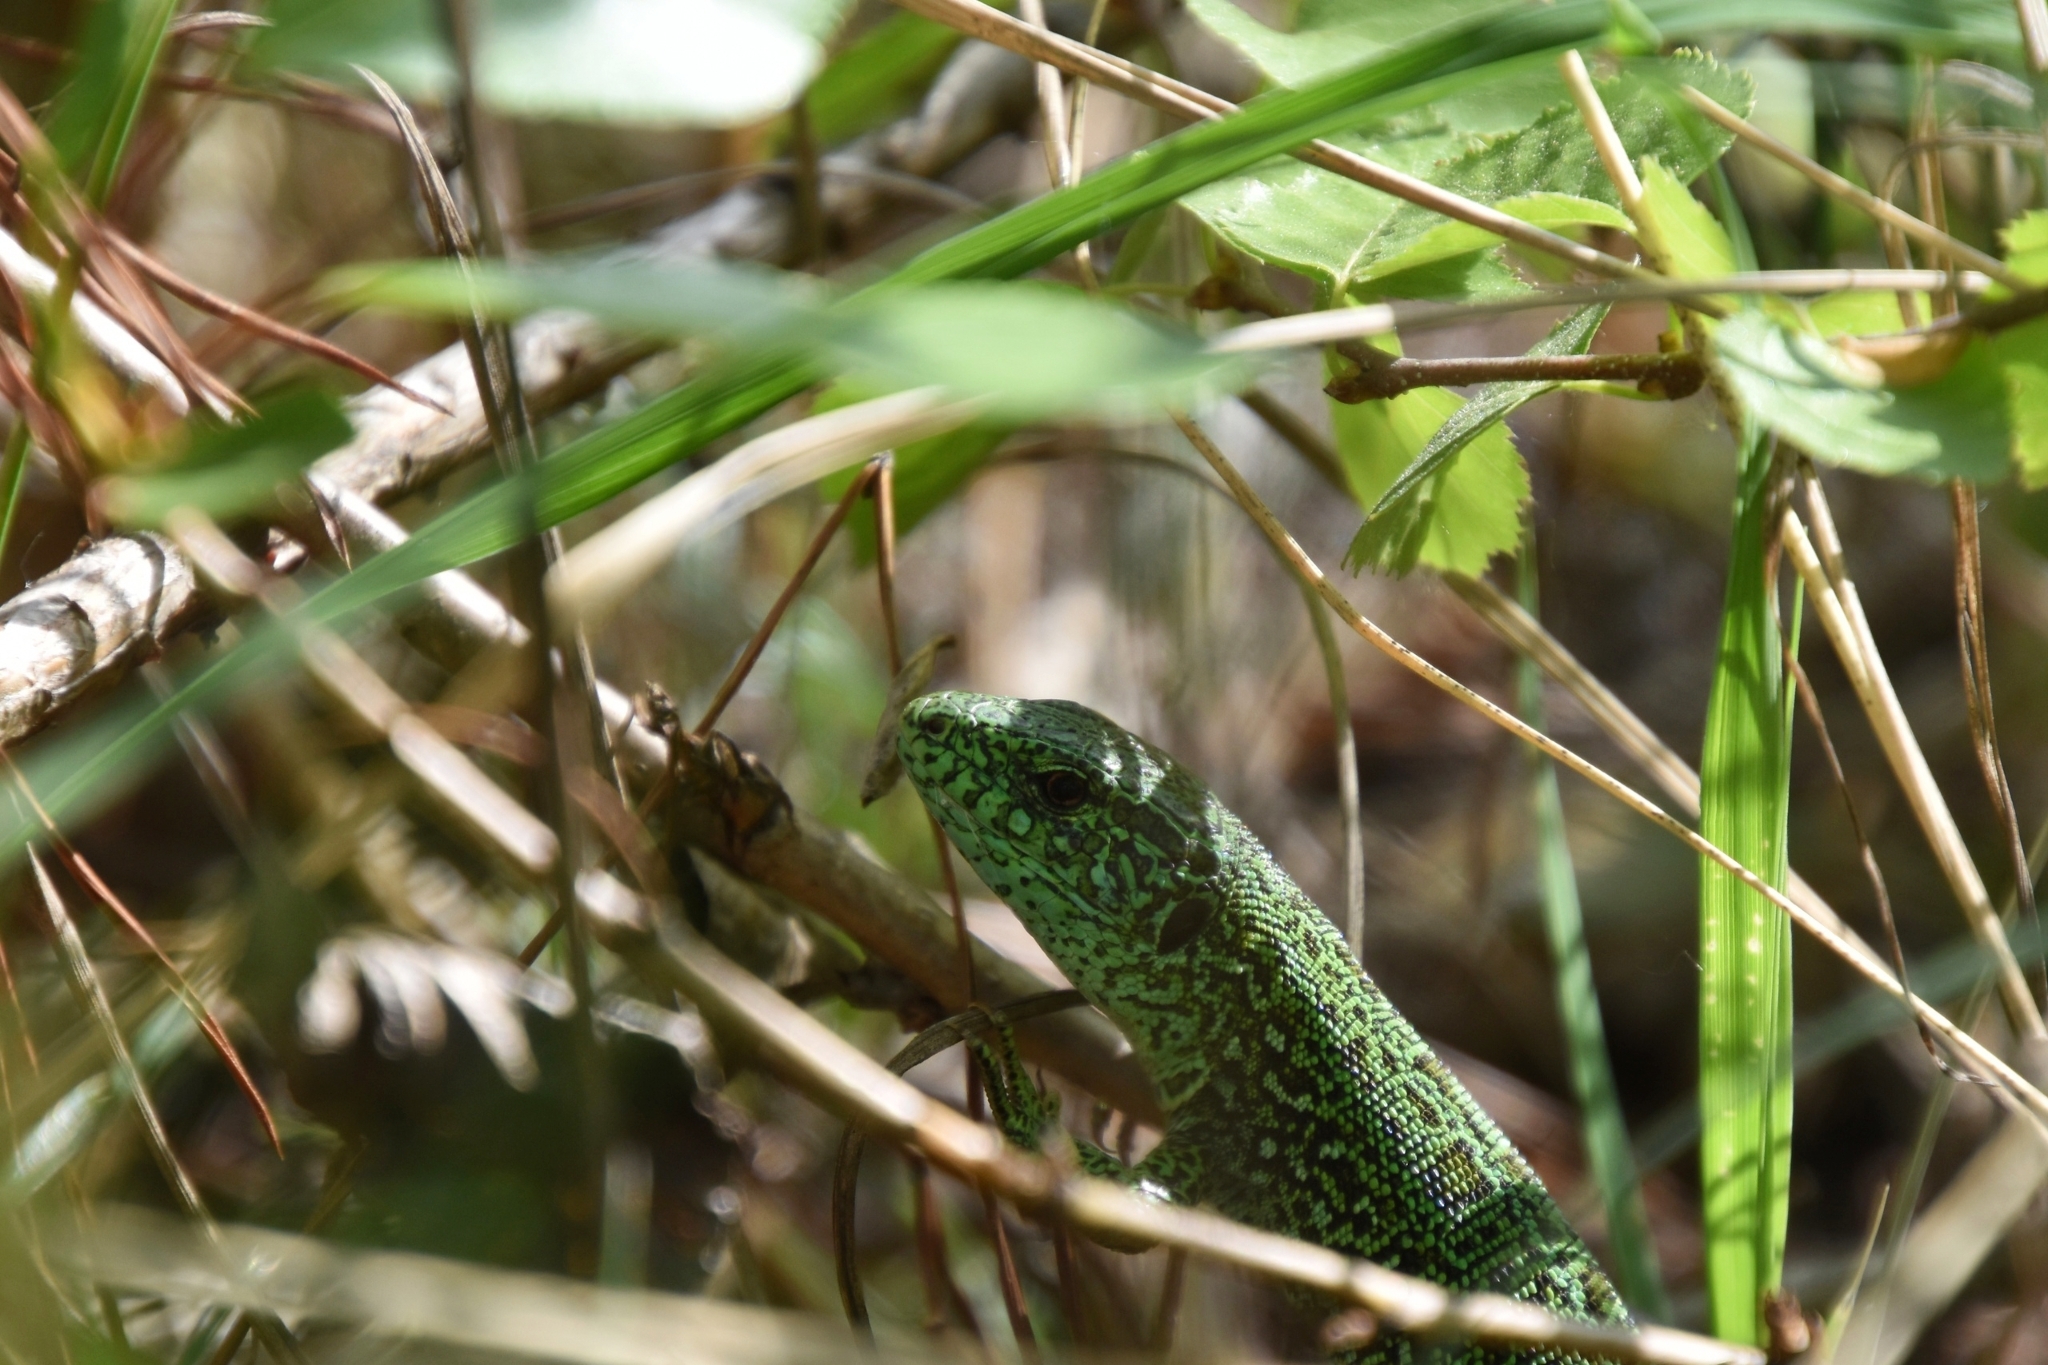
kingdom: Animalia
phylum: Chordata
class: Squamata
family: Lacertidae
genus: Lacerta
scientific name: Lacerta agilis
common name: Sand lizard
